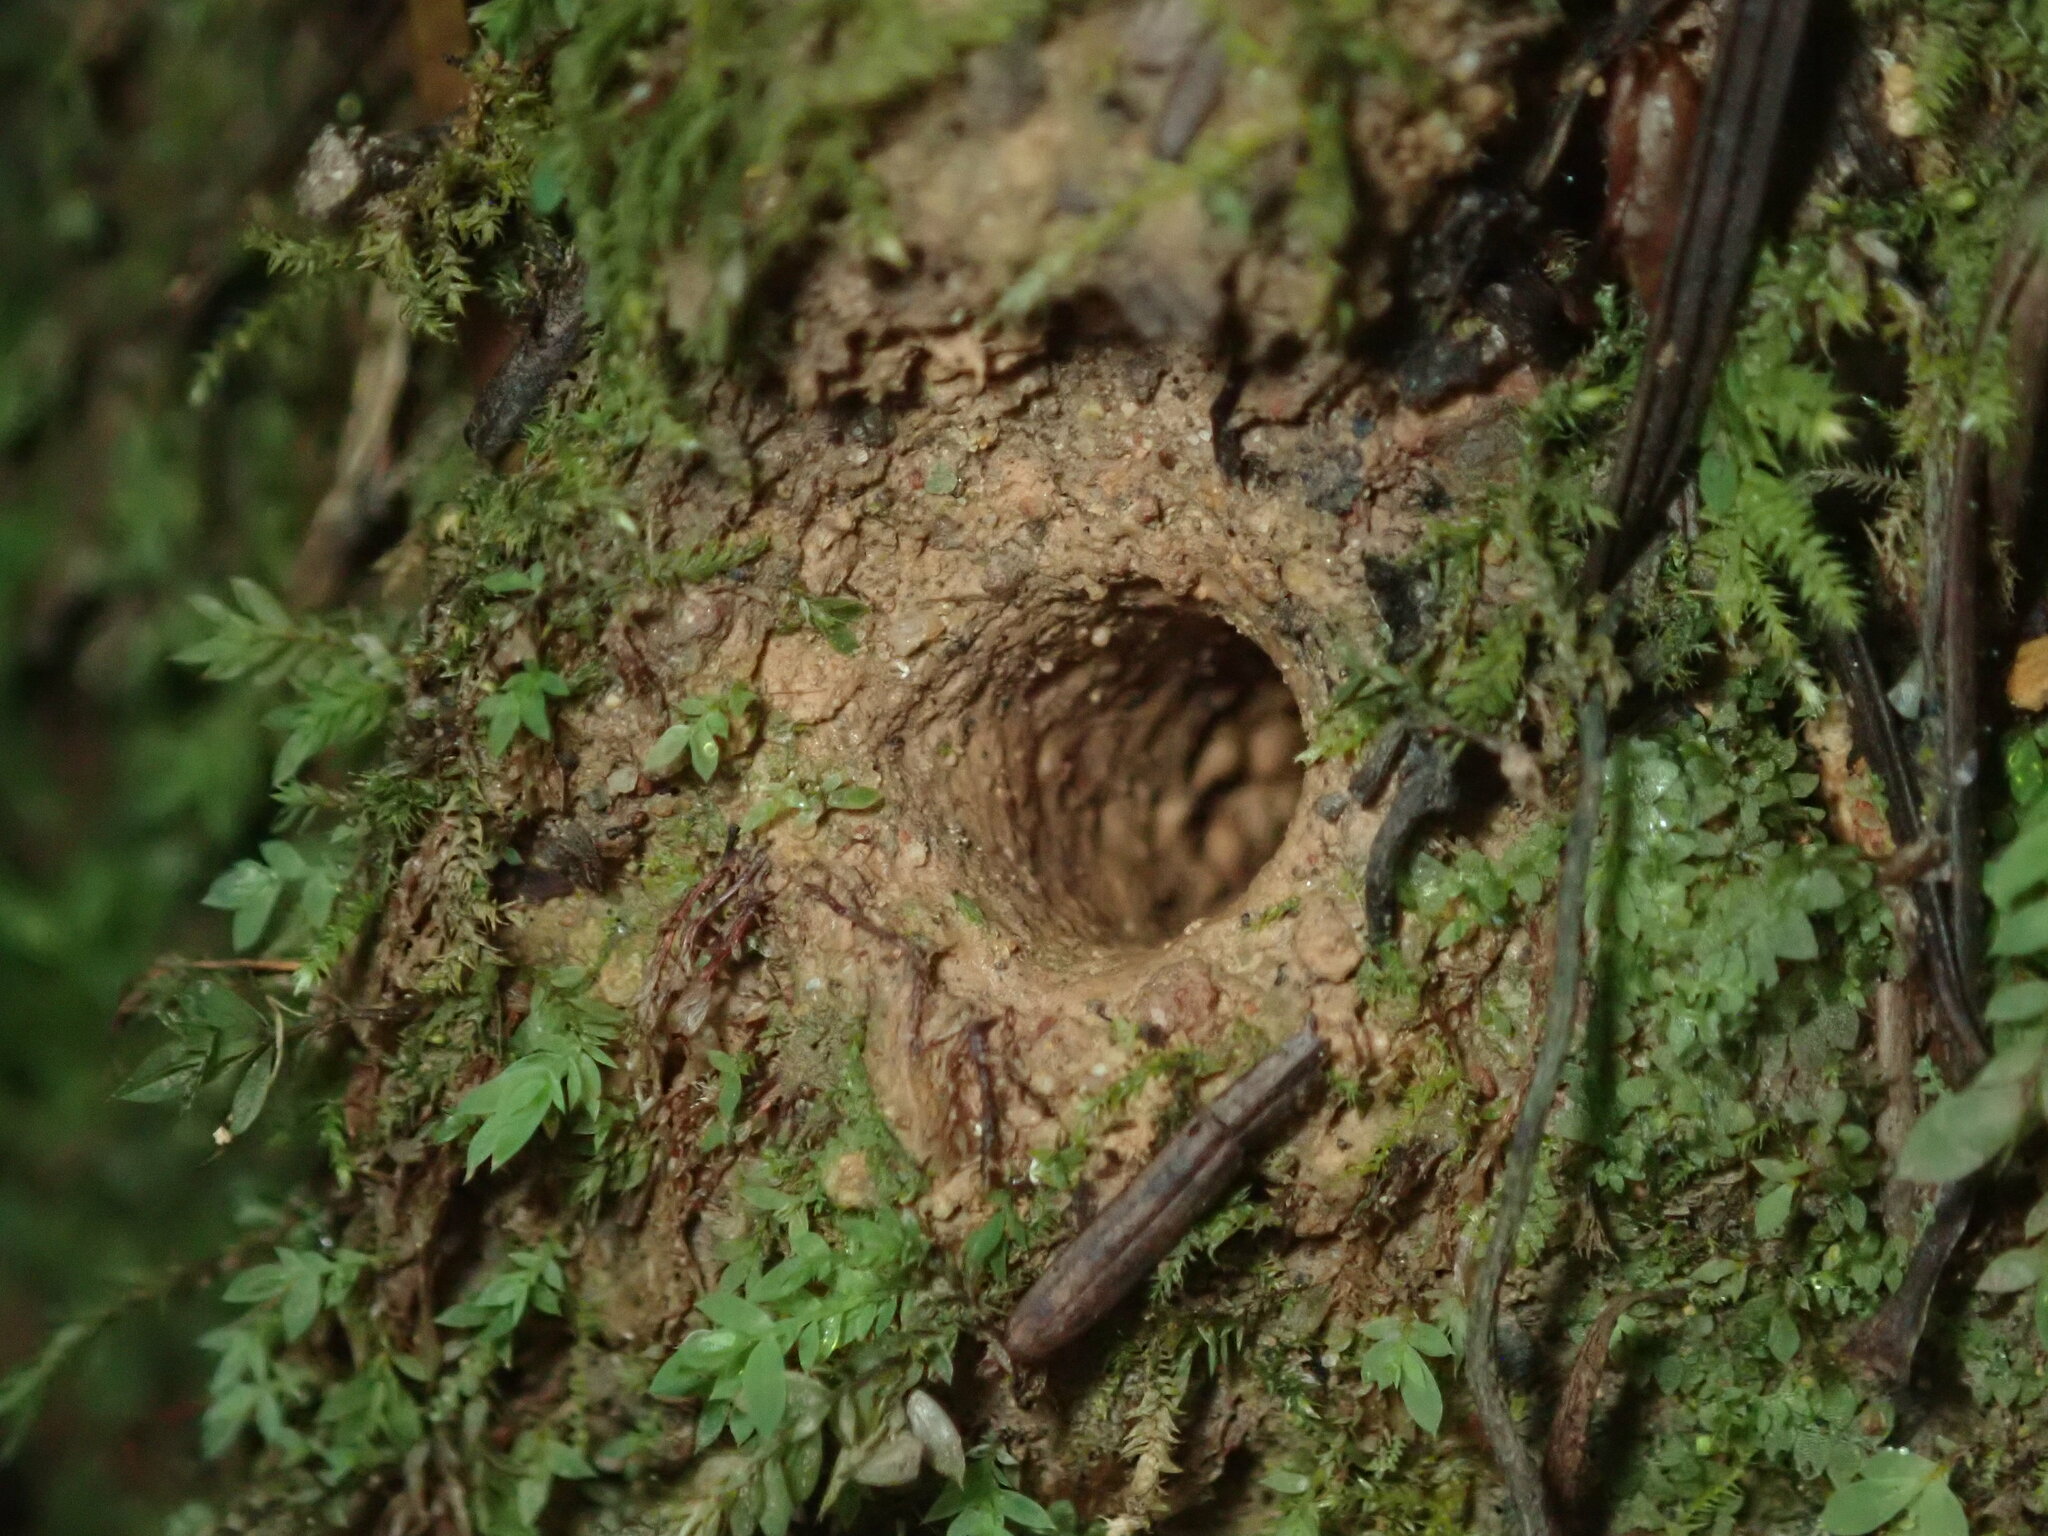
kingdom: Animalia
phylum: Arthropoda
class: Insecta
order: Coleoptera
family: Carabidae
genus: Omus
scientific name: Omus californicus
